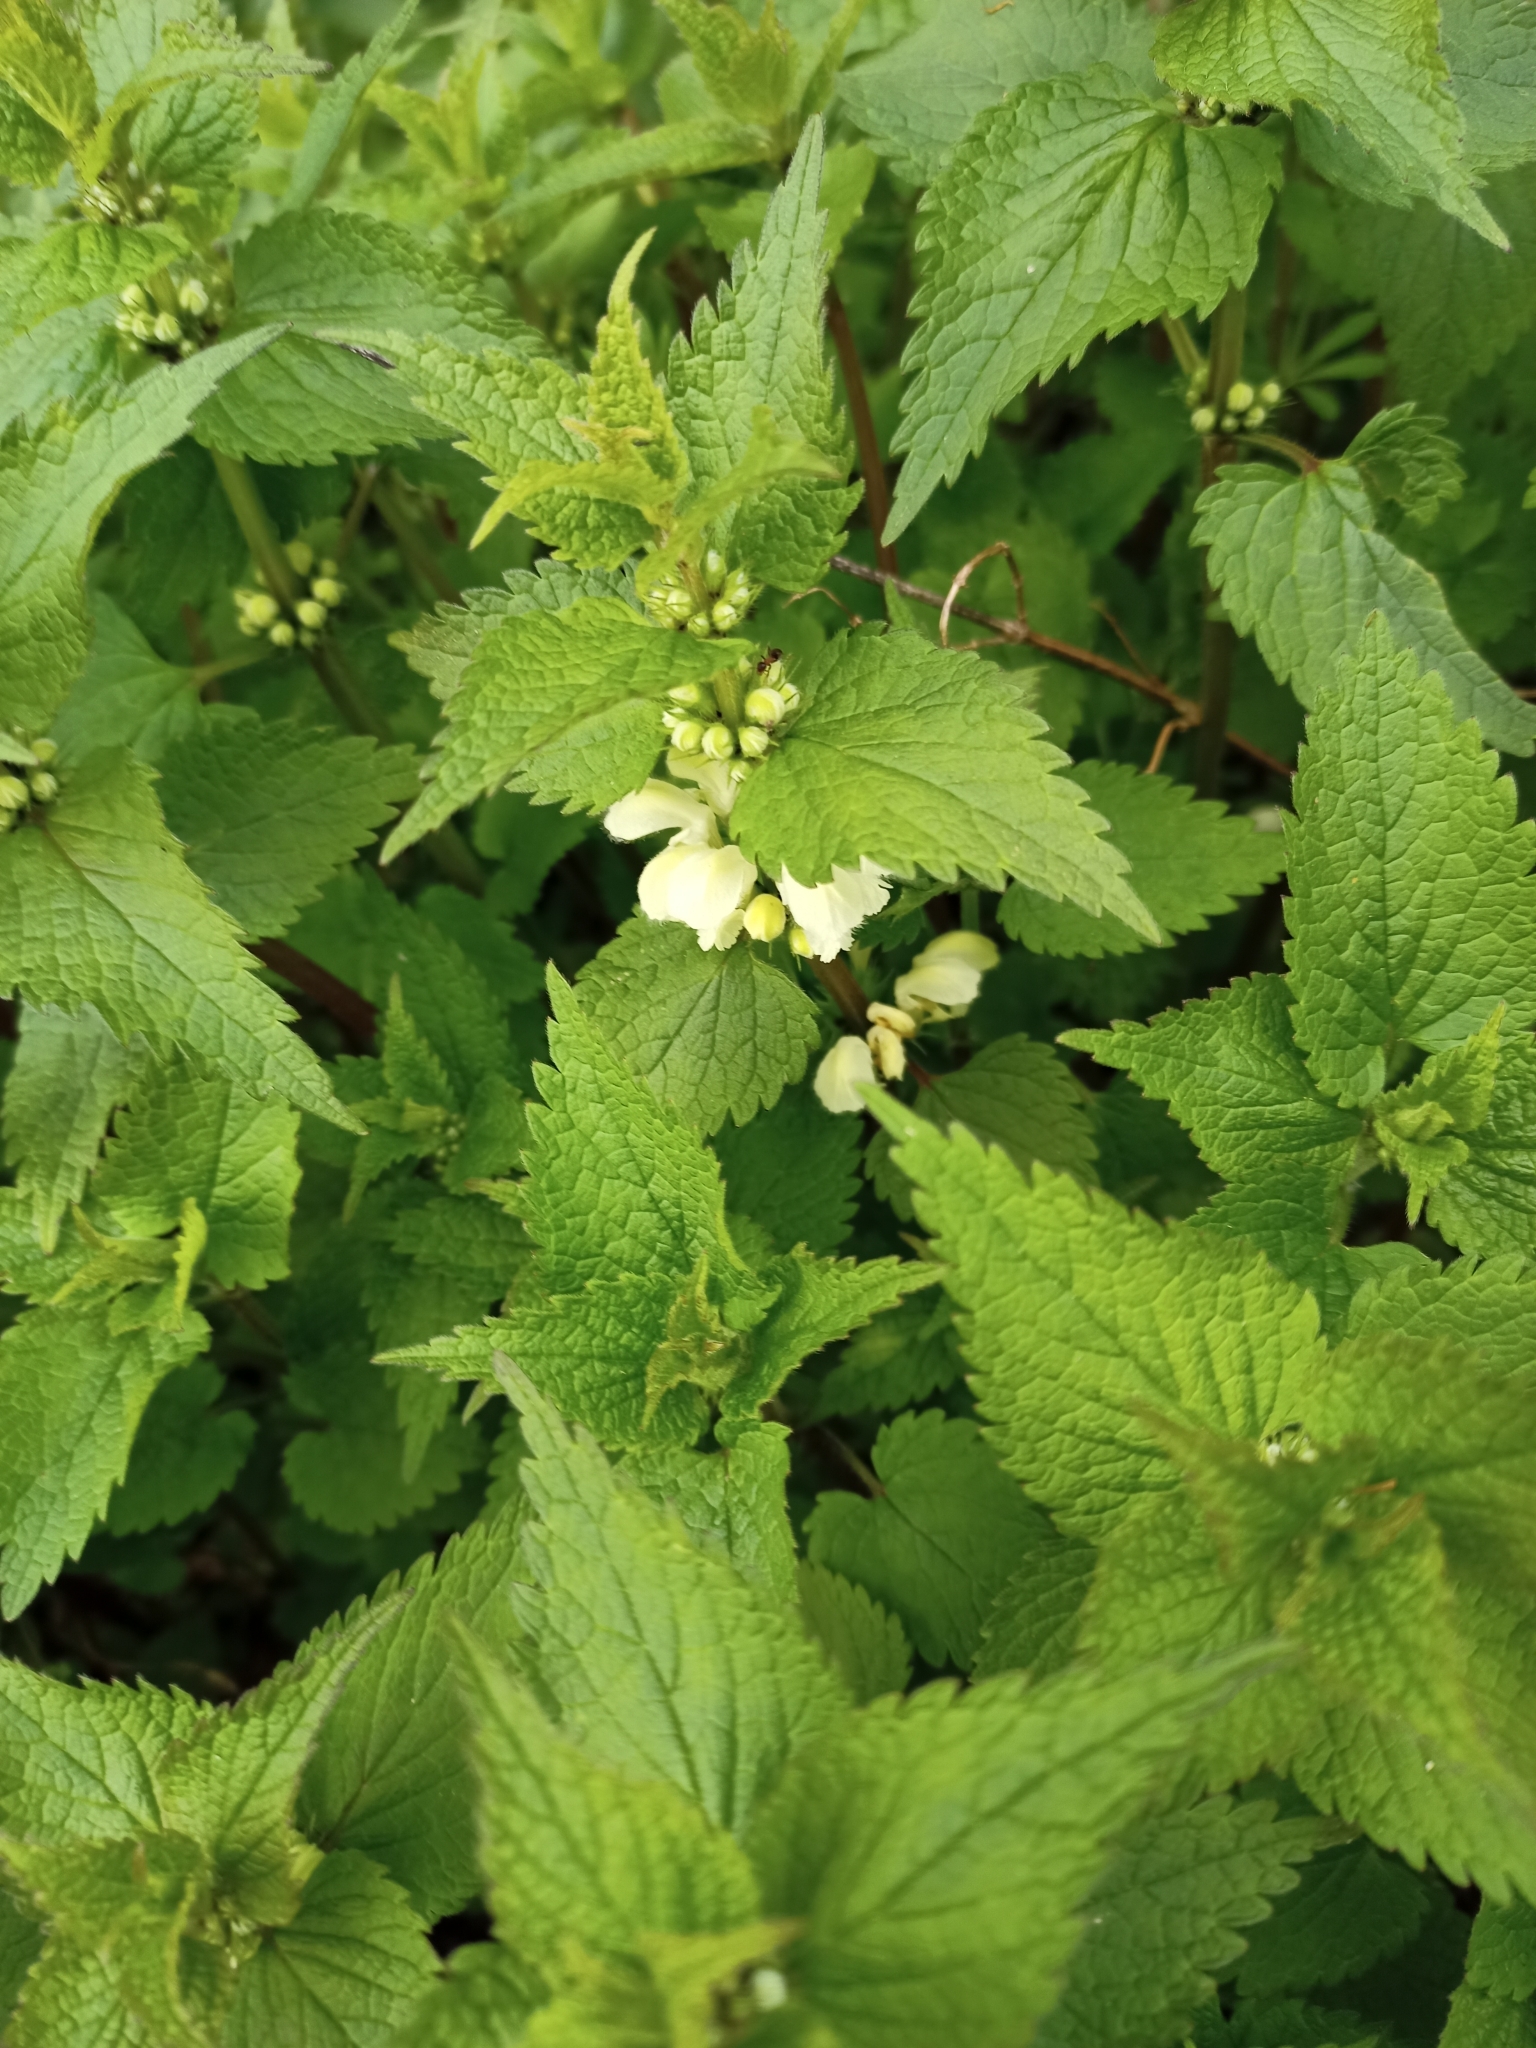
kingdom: Plantae
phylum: Tracheophyta
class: Magnoliopsida
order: Lamiales
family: Lamiaceae
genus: Lamium
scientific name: Lamium album
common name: White dead-nettle
